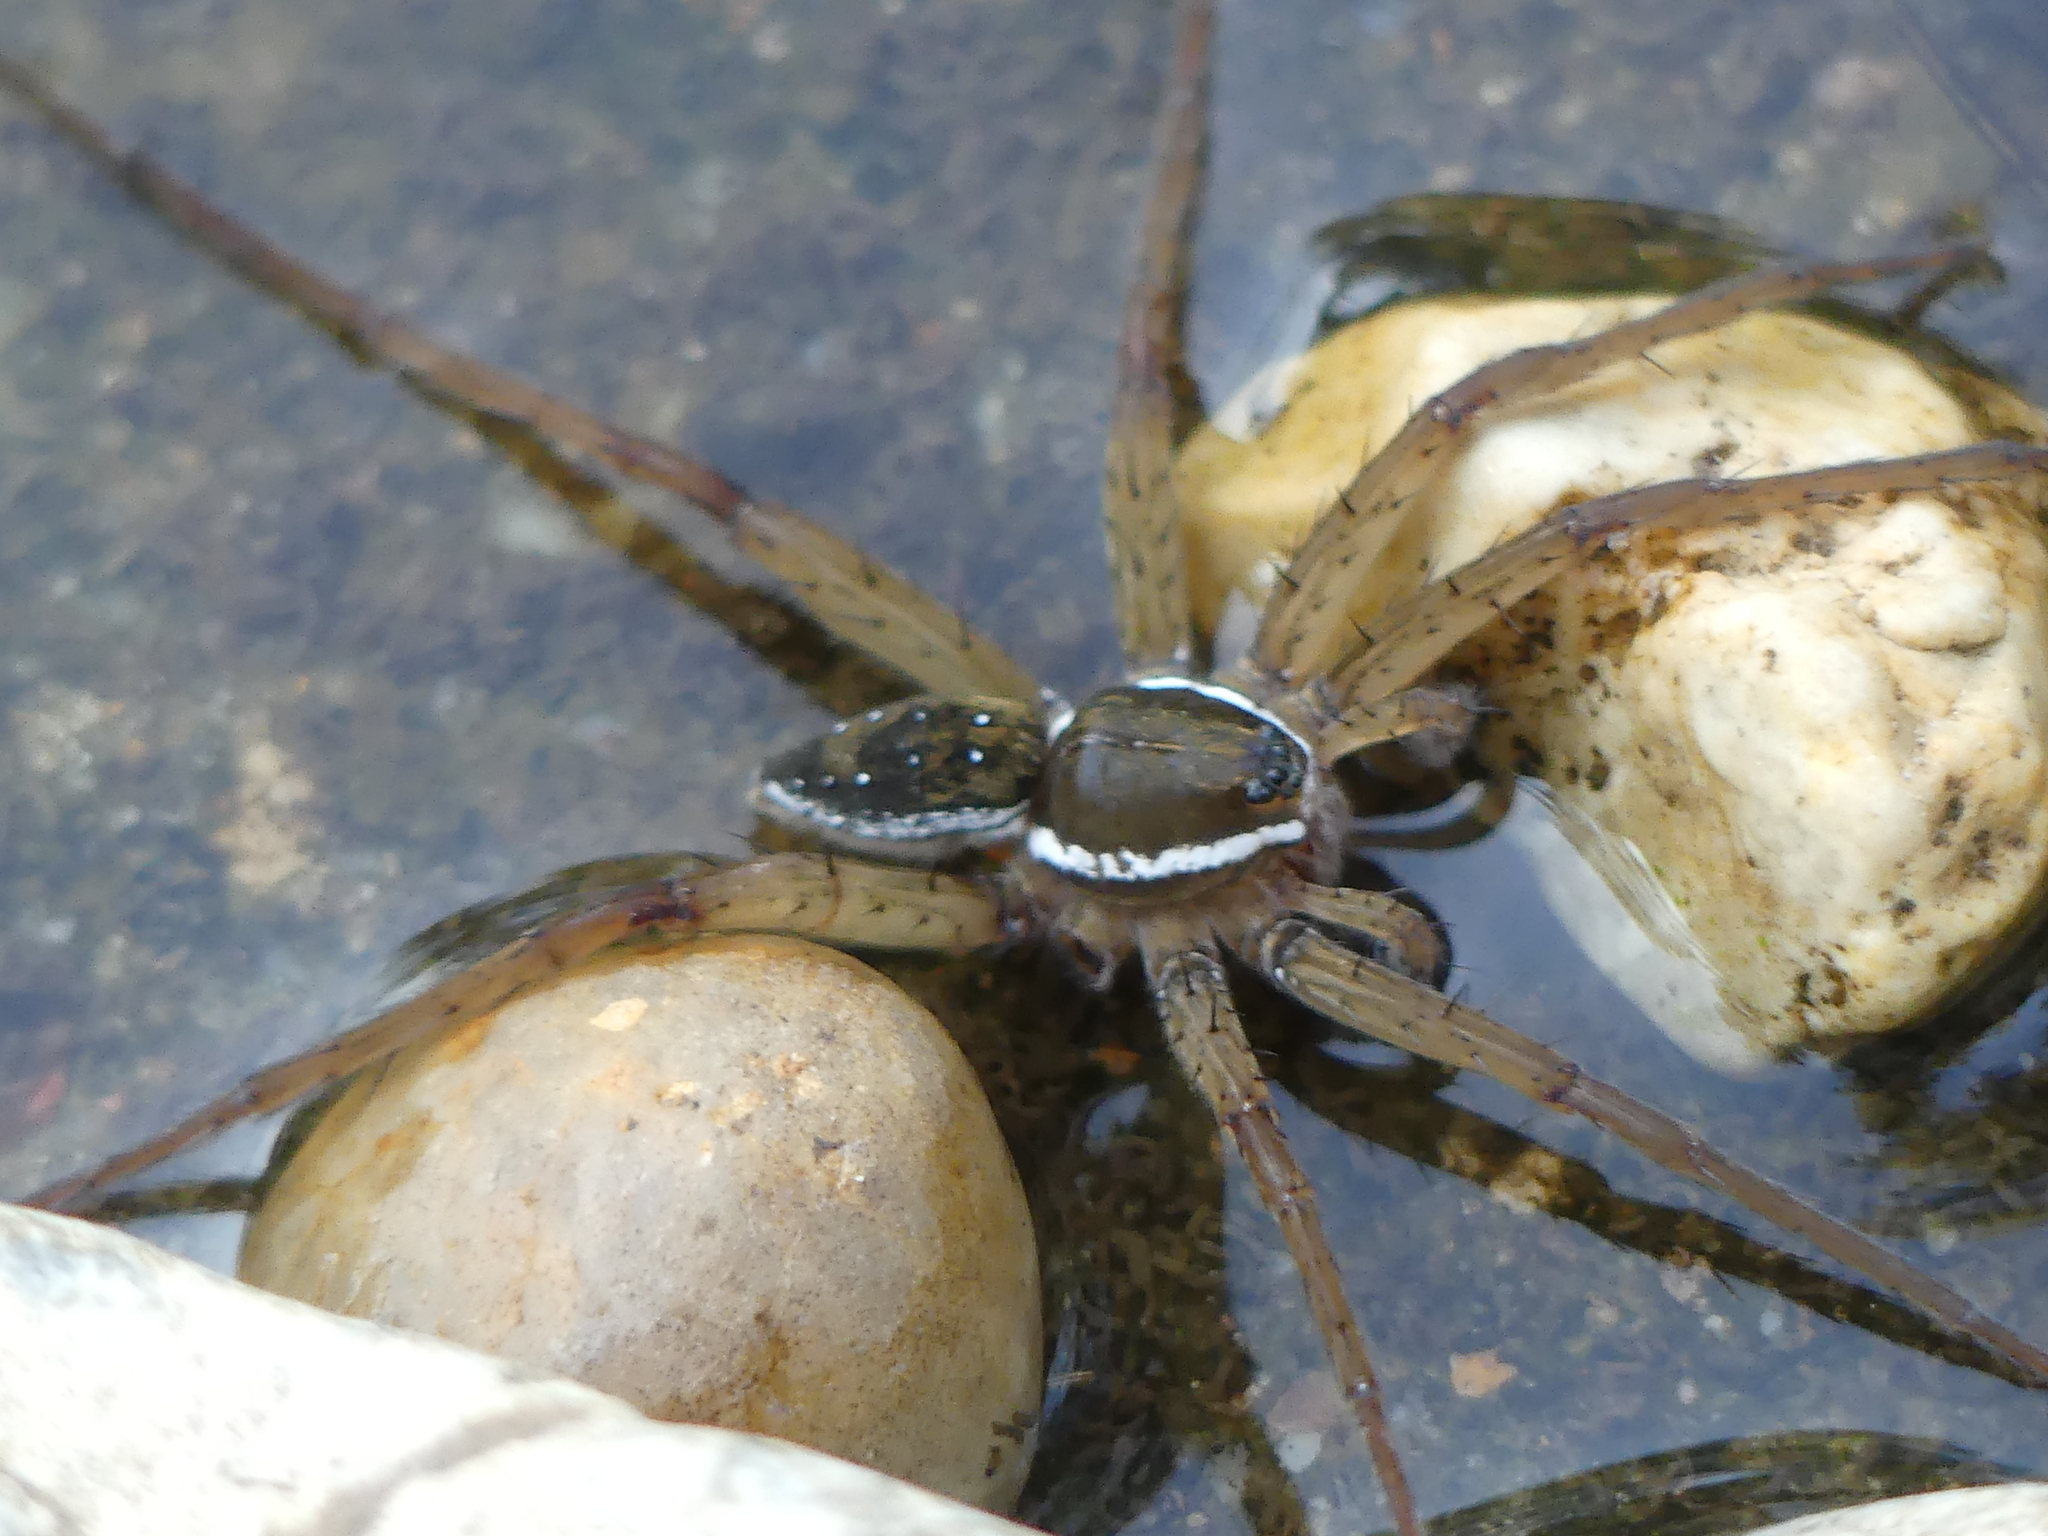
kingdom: Animalia
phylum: Arthropoda
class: Arachnida
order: Araneae
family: Pisauridae
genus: Dolomedes
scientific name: Dolomedes triton
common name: Six-spotted fishing spider
